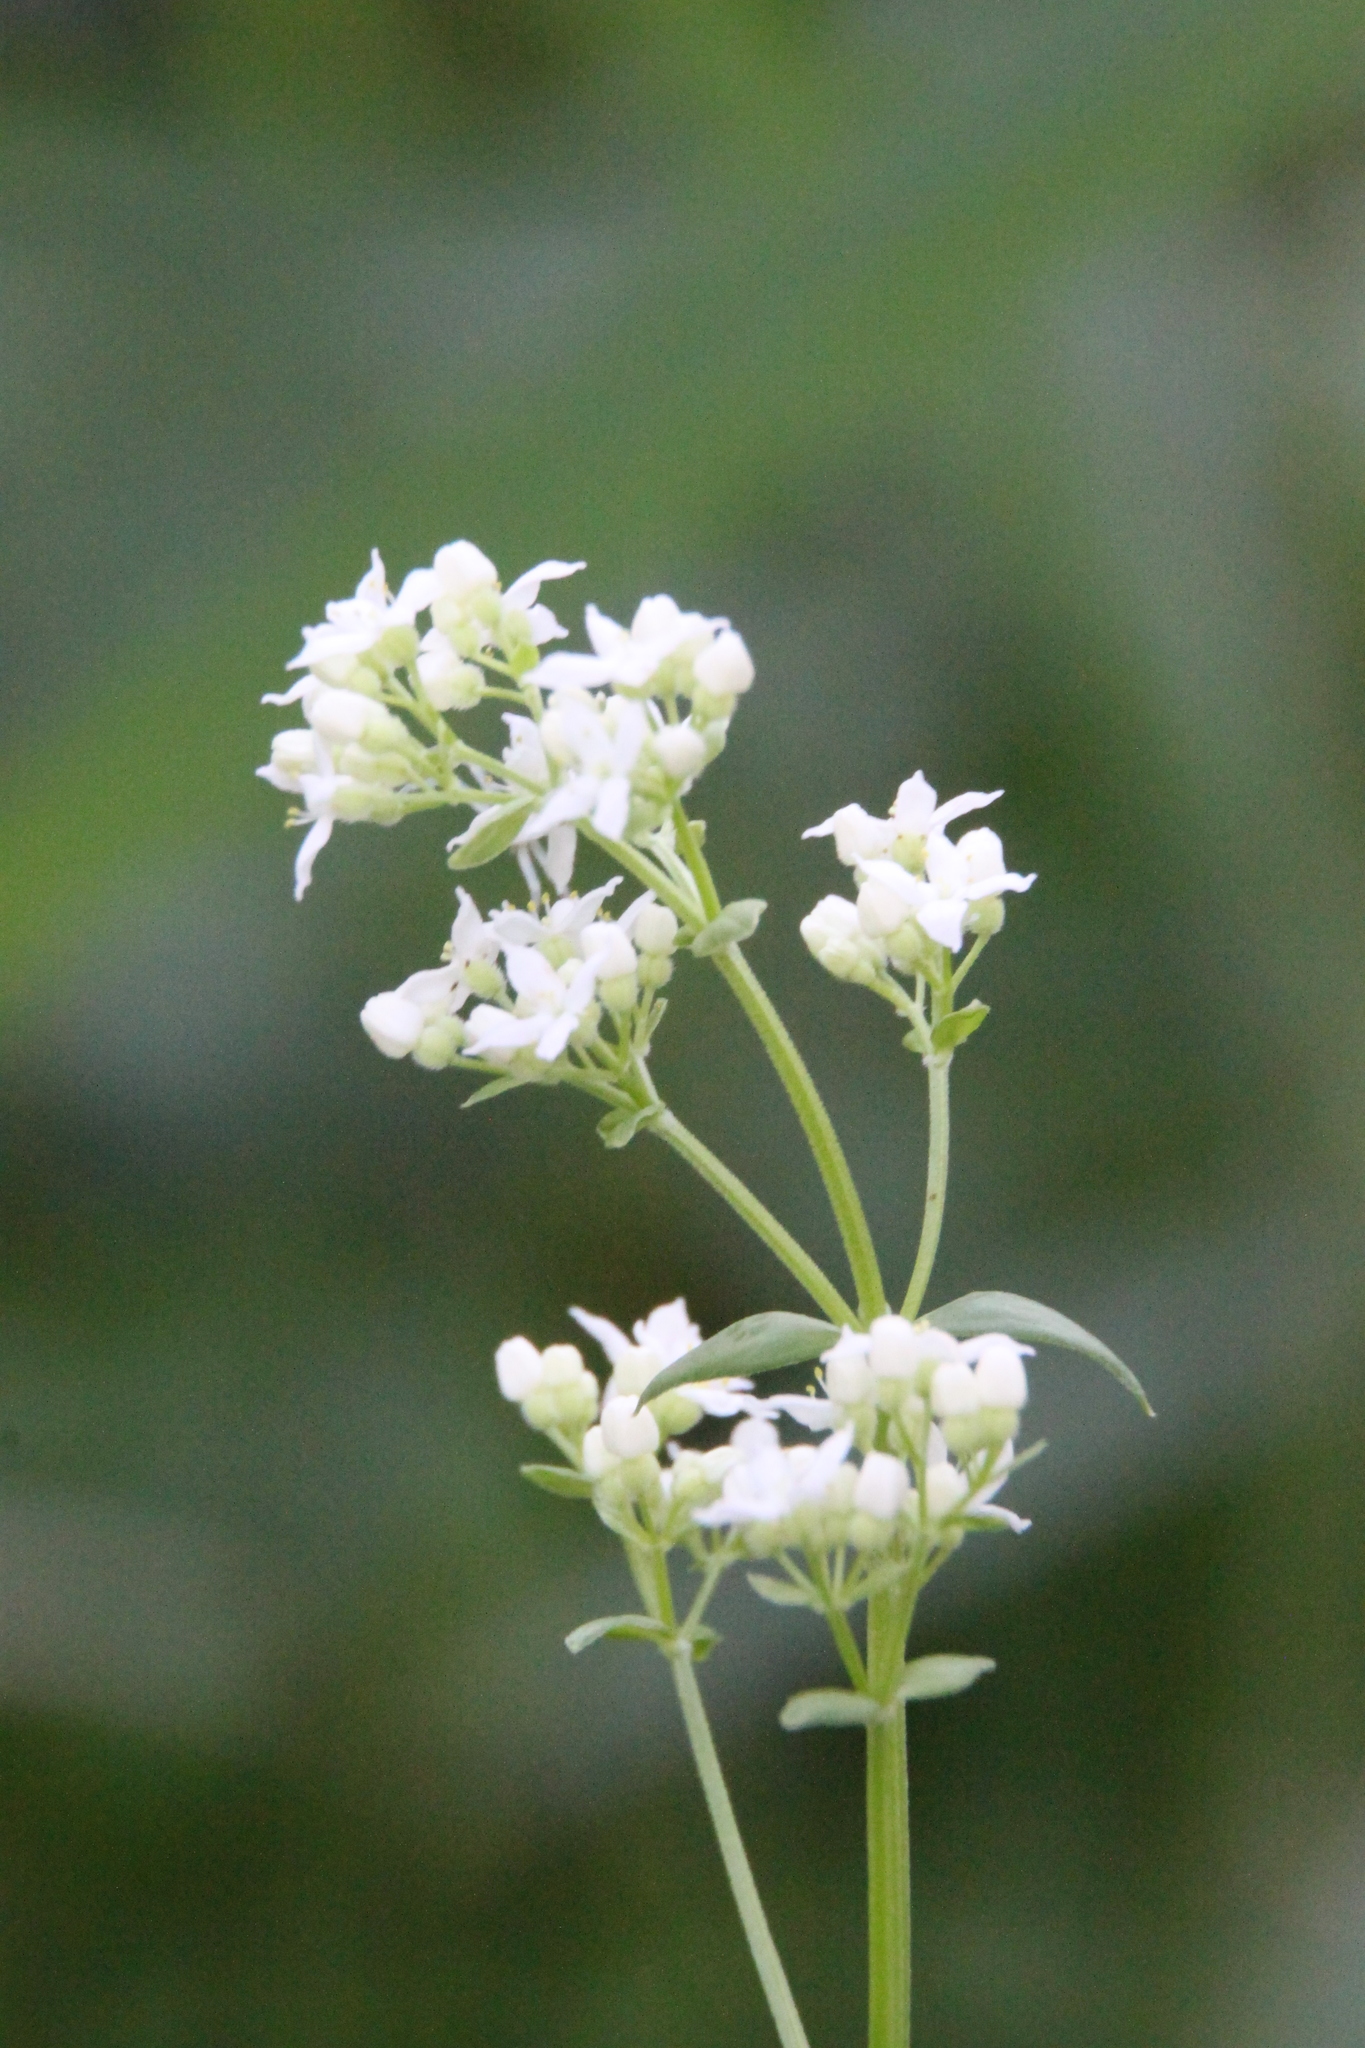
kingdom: Plantae
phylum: Tracheophyta
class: Magnoliopsida
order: Gentianales
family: Rubiaceae
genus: Galium
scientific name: Galium boreale
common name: Northern bedstraw
